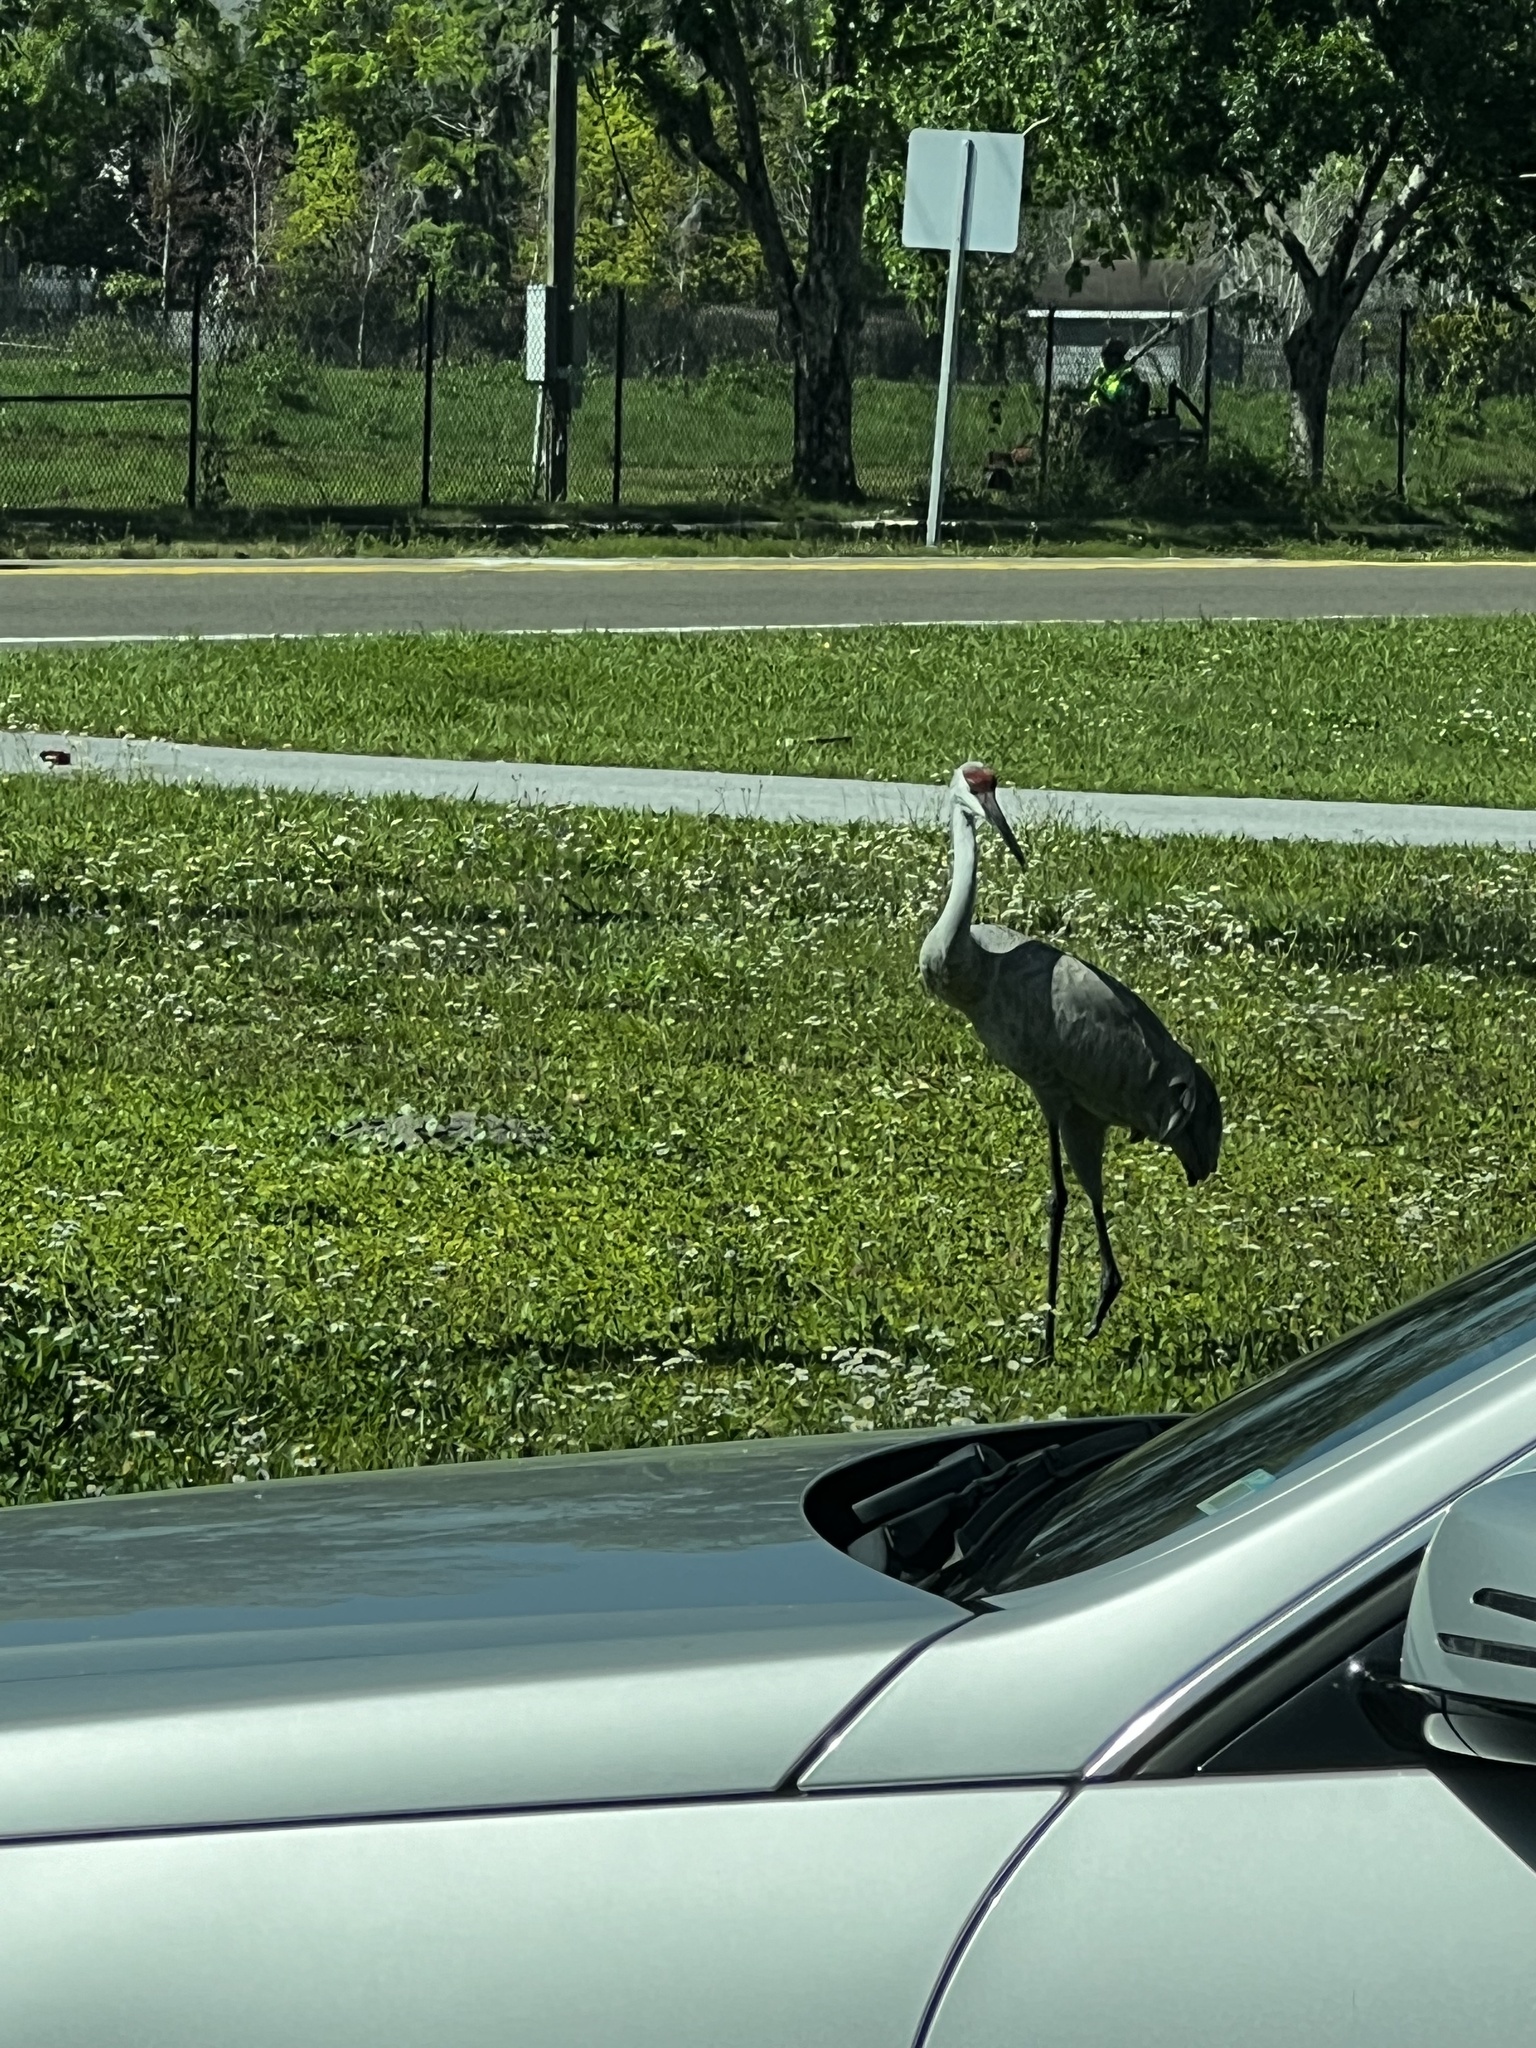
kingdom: Animalia
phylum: Chordata
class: Aves
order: Gruiformes
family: Gruidae
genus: Grus
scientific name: Grus canadensis
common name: Sandhill crane
